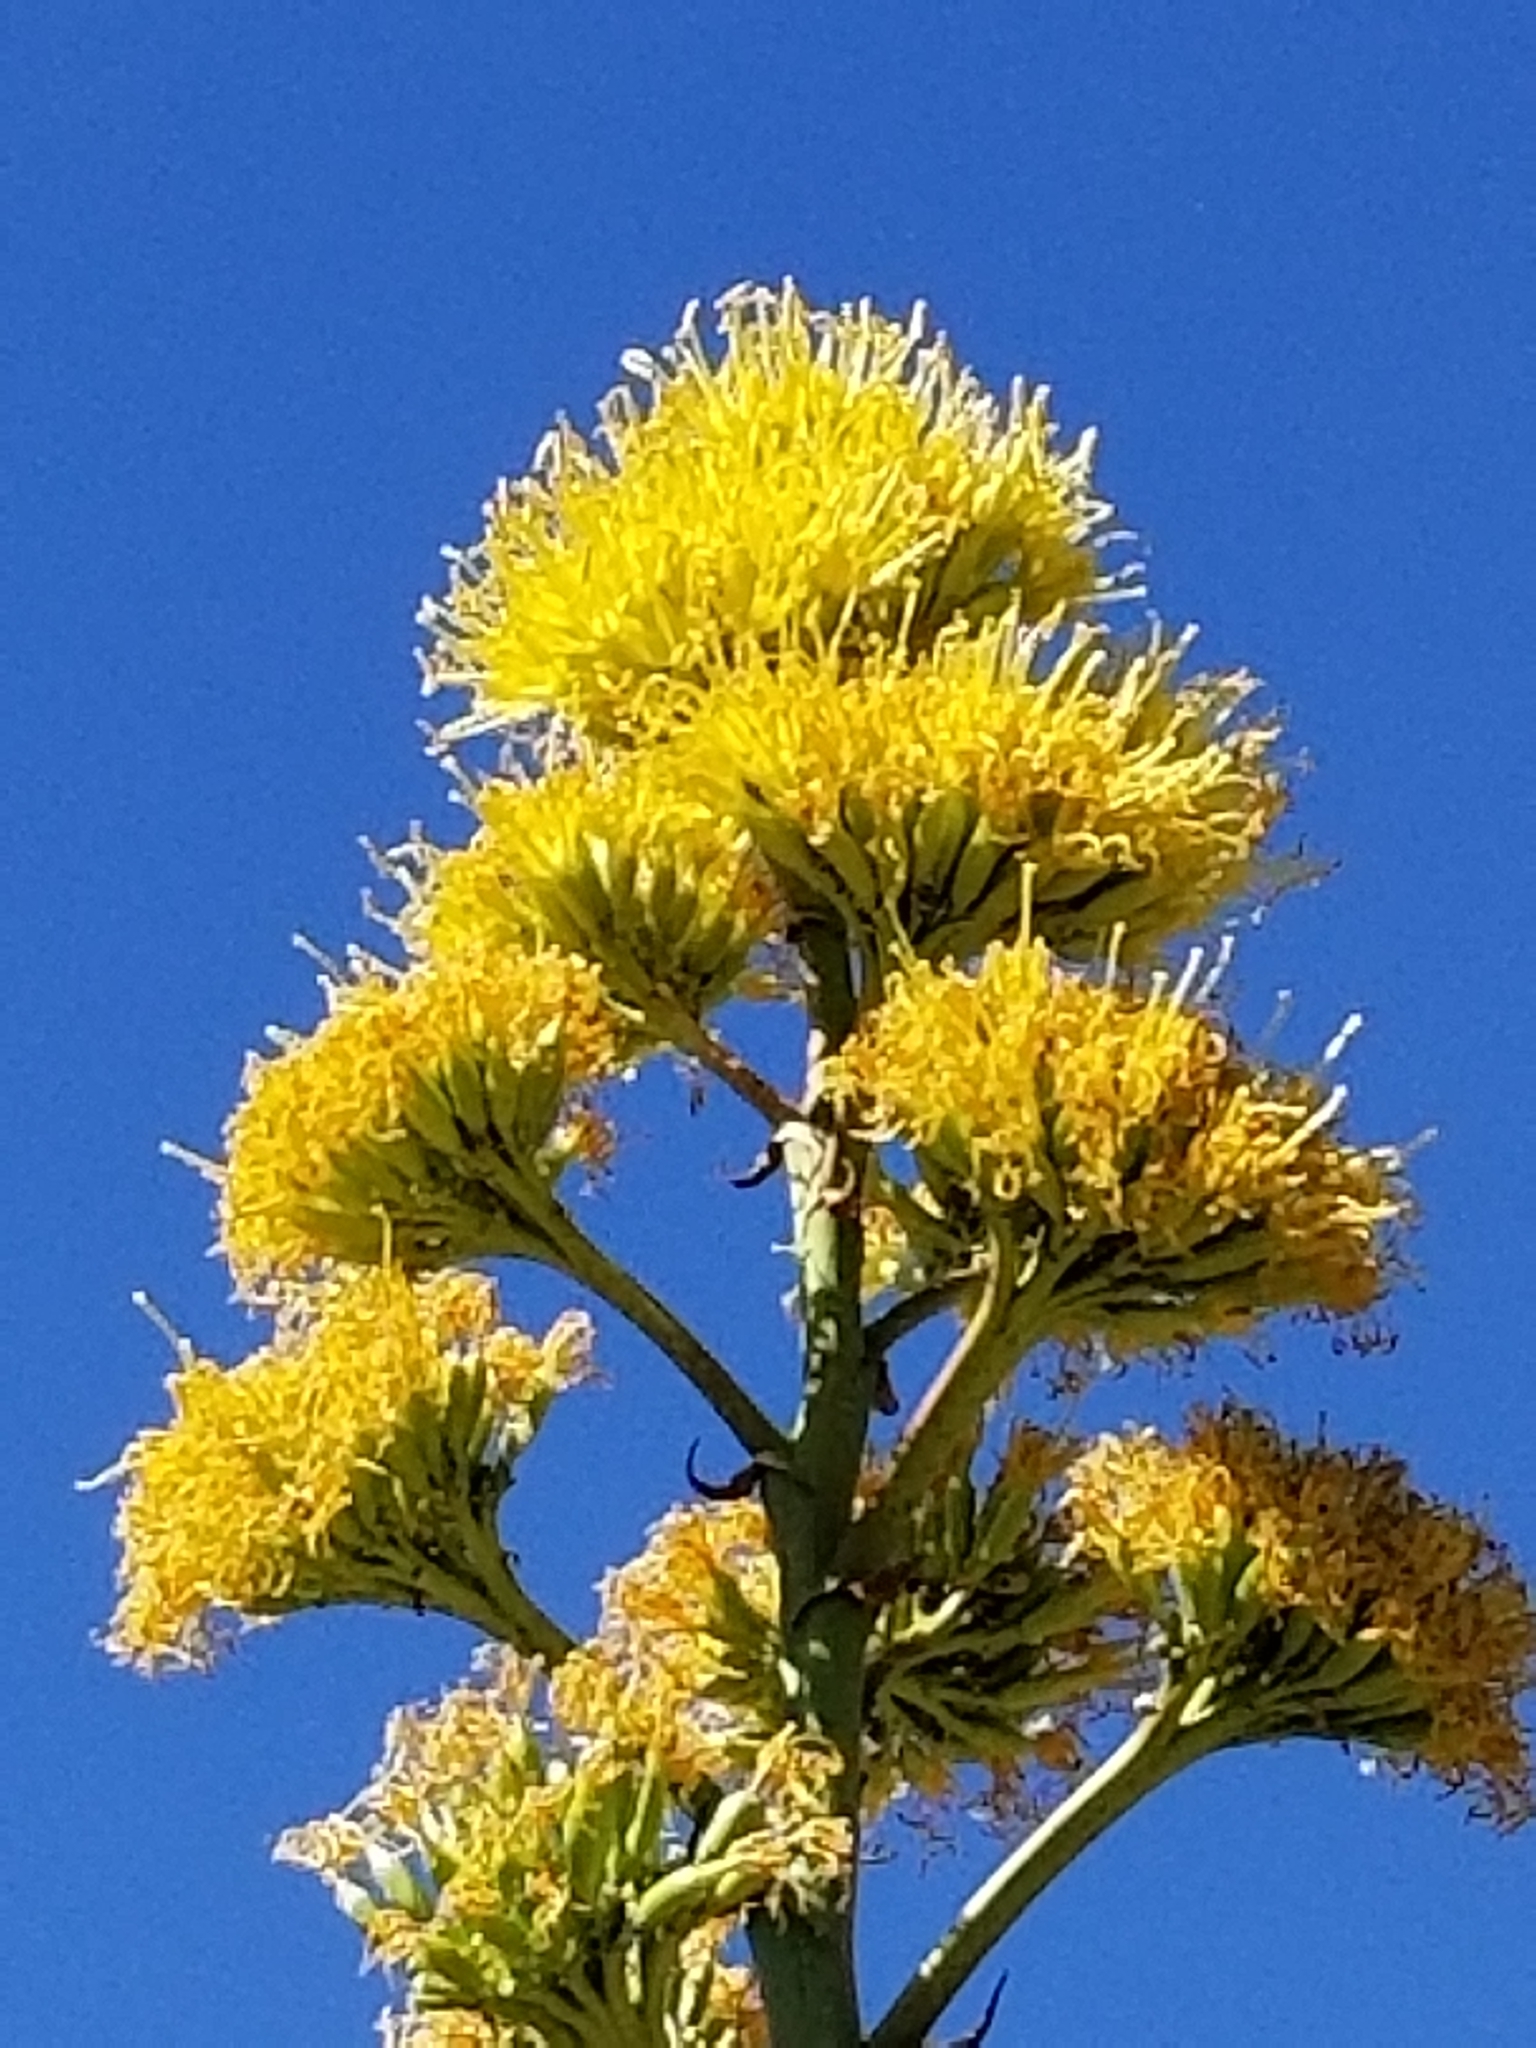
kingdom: Plantae
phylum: Tracheophyta
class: Liliopsida
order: Asparagales
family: Asparagaceae
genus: Agave
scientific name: Agave deserti
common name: Desert agave
